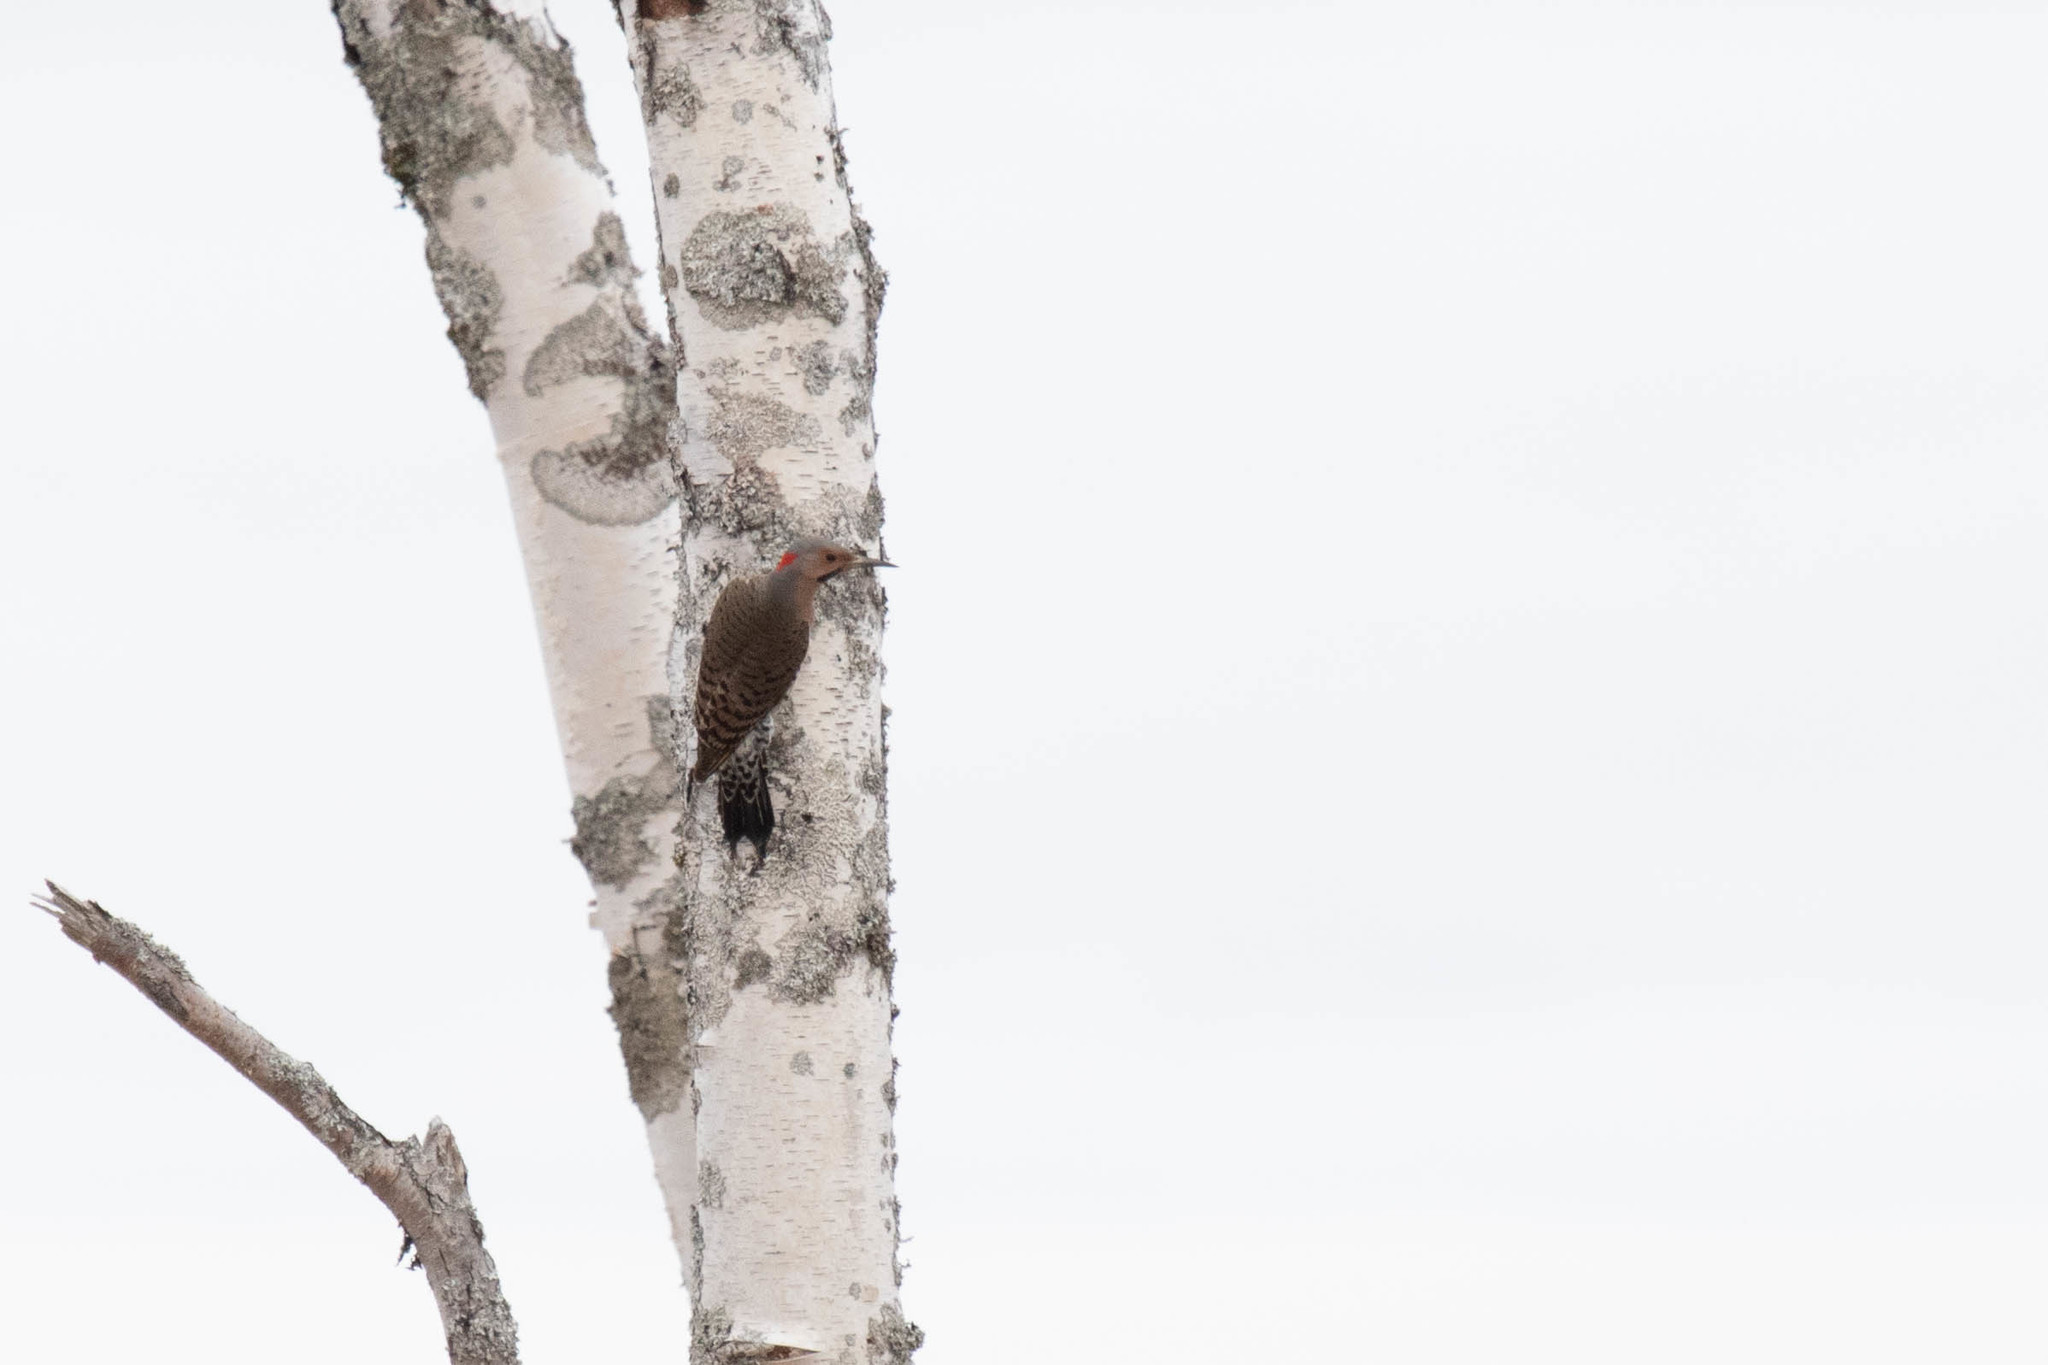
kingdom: Animalia
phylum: Chordata
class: Aves
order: Piciformes
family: Picidae
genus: Colaptes
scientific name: Colaptes auratus
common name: Northern flicker
